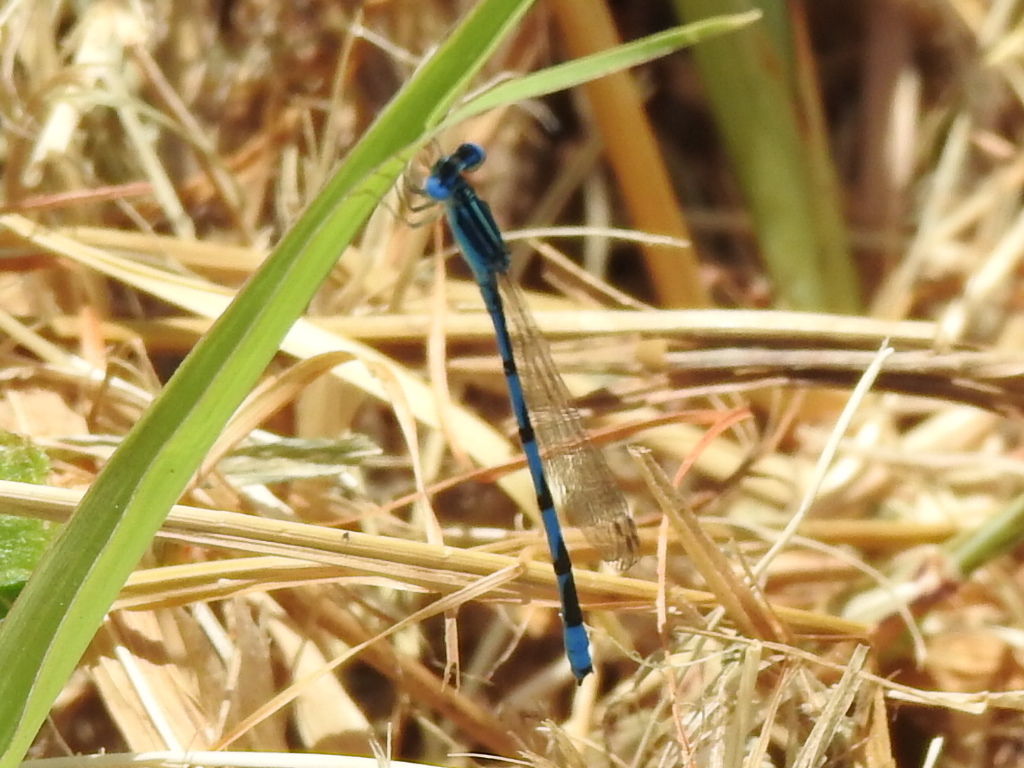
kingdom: Animalia
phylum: Arthropoda
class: Insecta
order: Odonata
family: Coenagrionidae
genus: Enallagma
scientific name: Enallagma basidens
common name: Double-striped bluet
